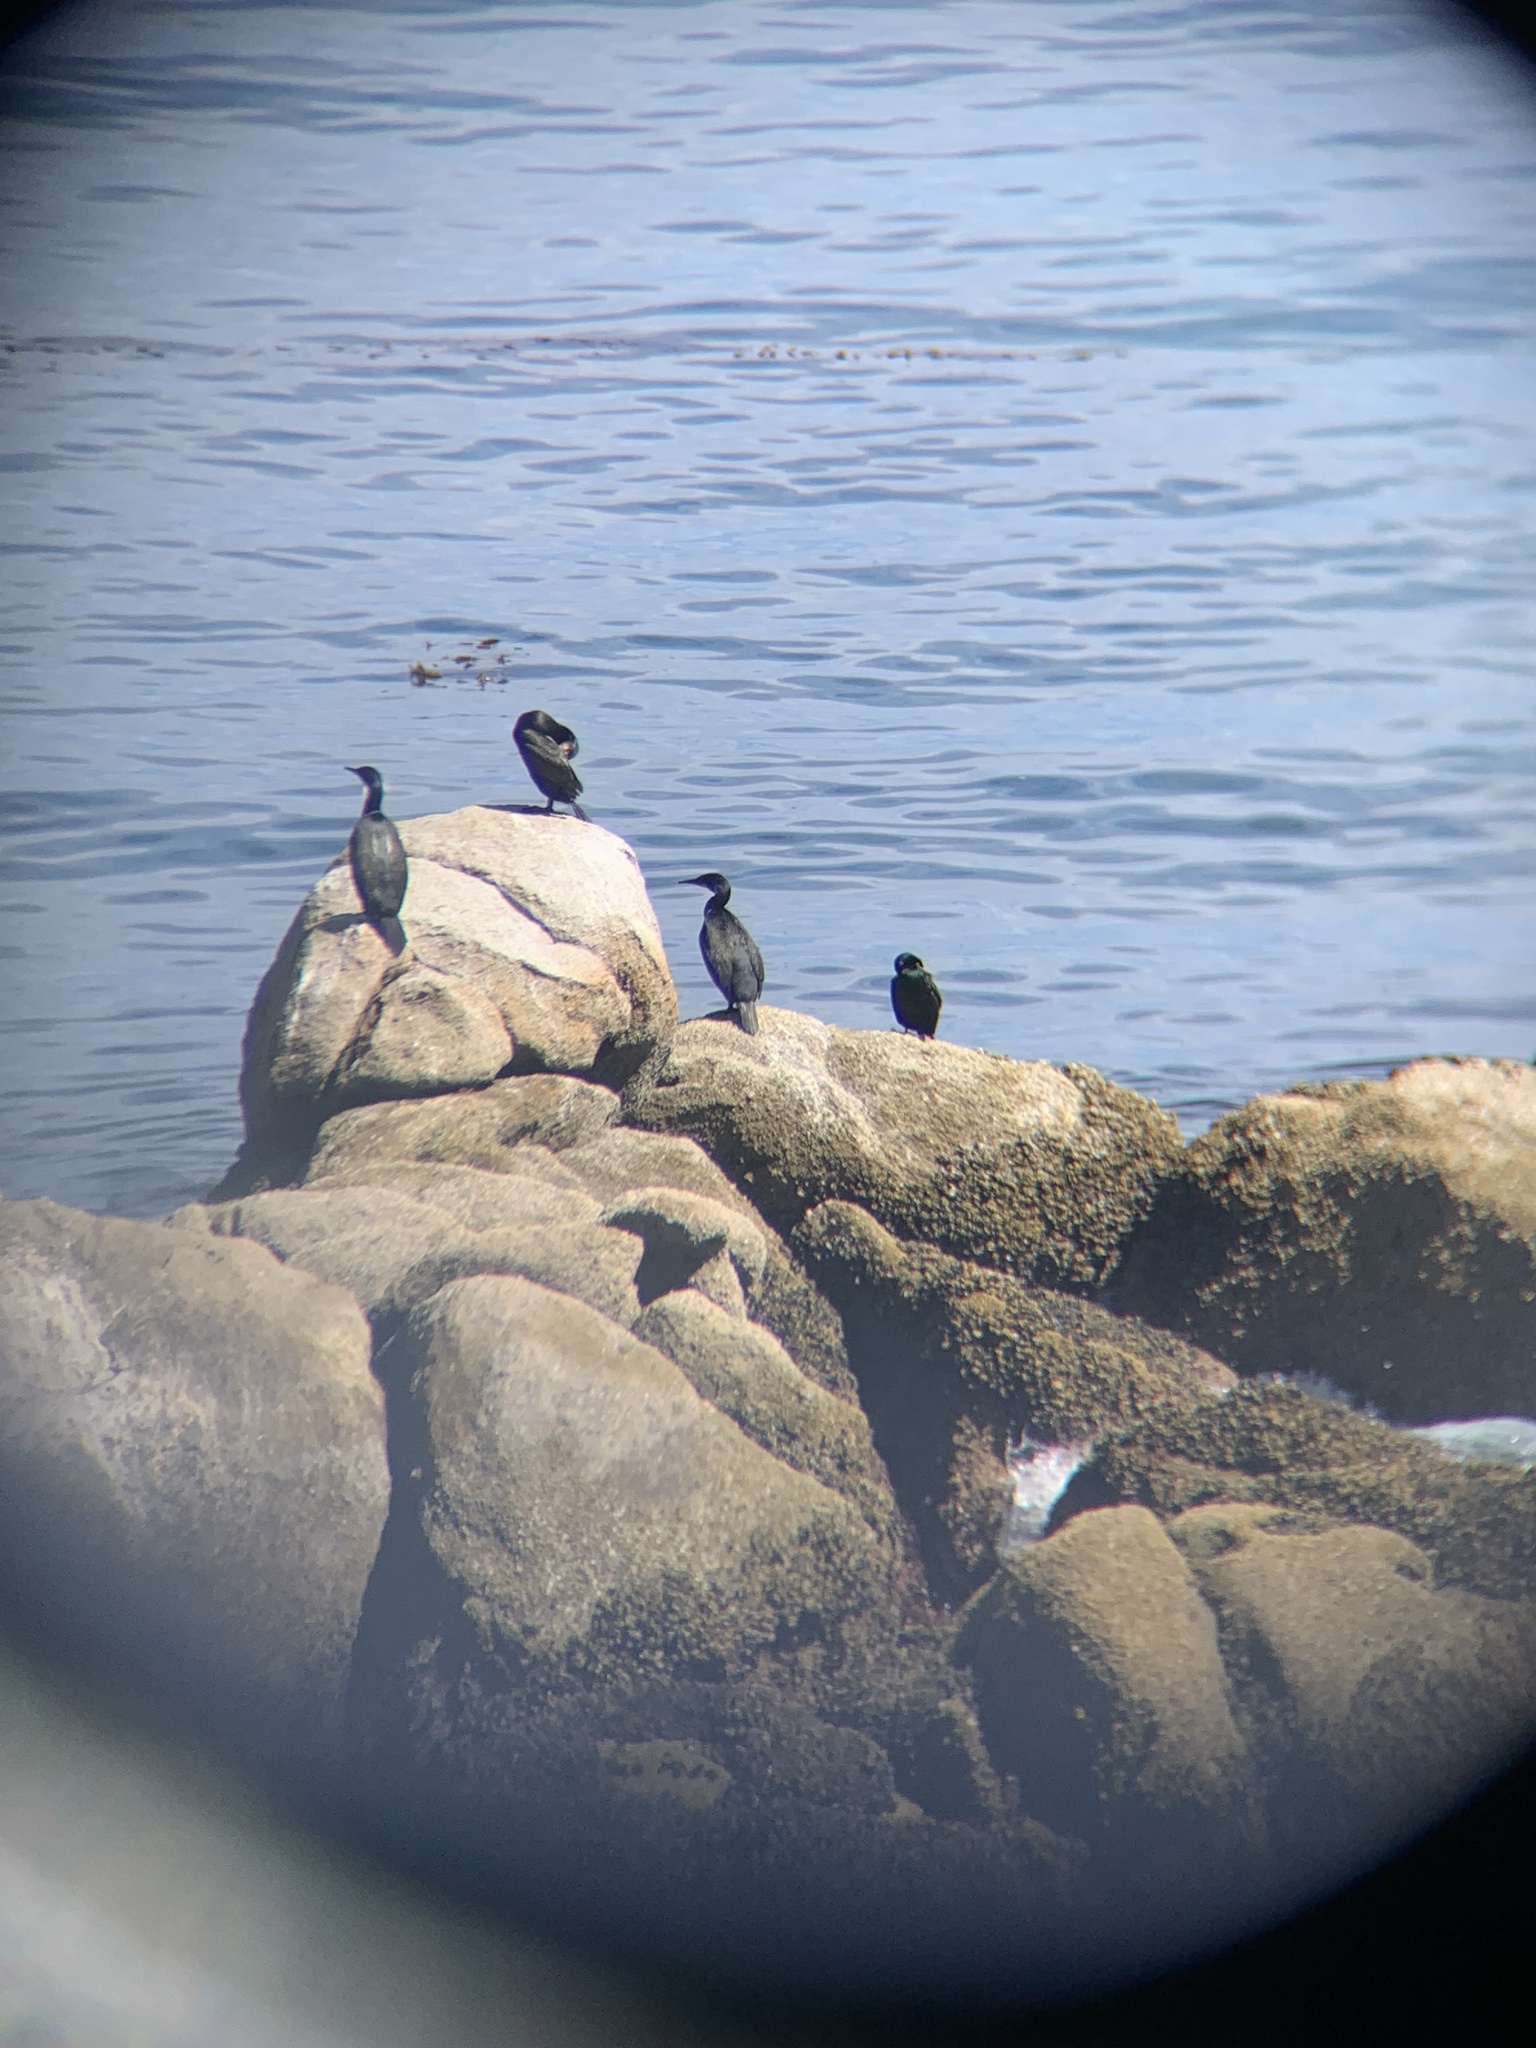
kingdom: Animalia
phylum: Chordata
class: Aves
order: Suliformes
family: Phalacrocoracidae
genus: Urile
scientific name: Urile penicillatus
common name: Brandt's cormorant
